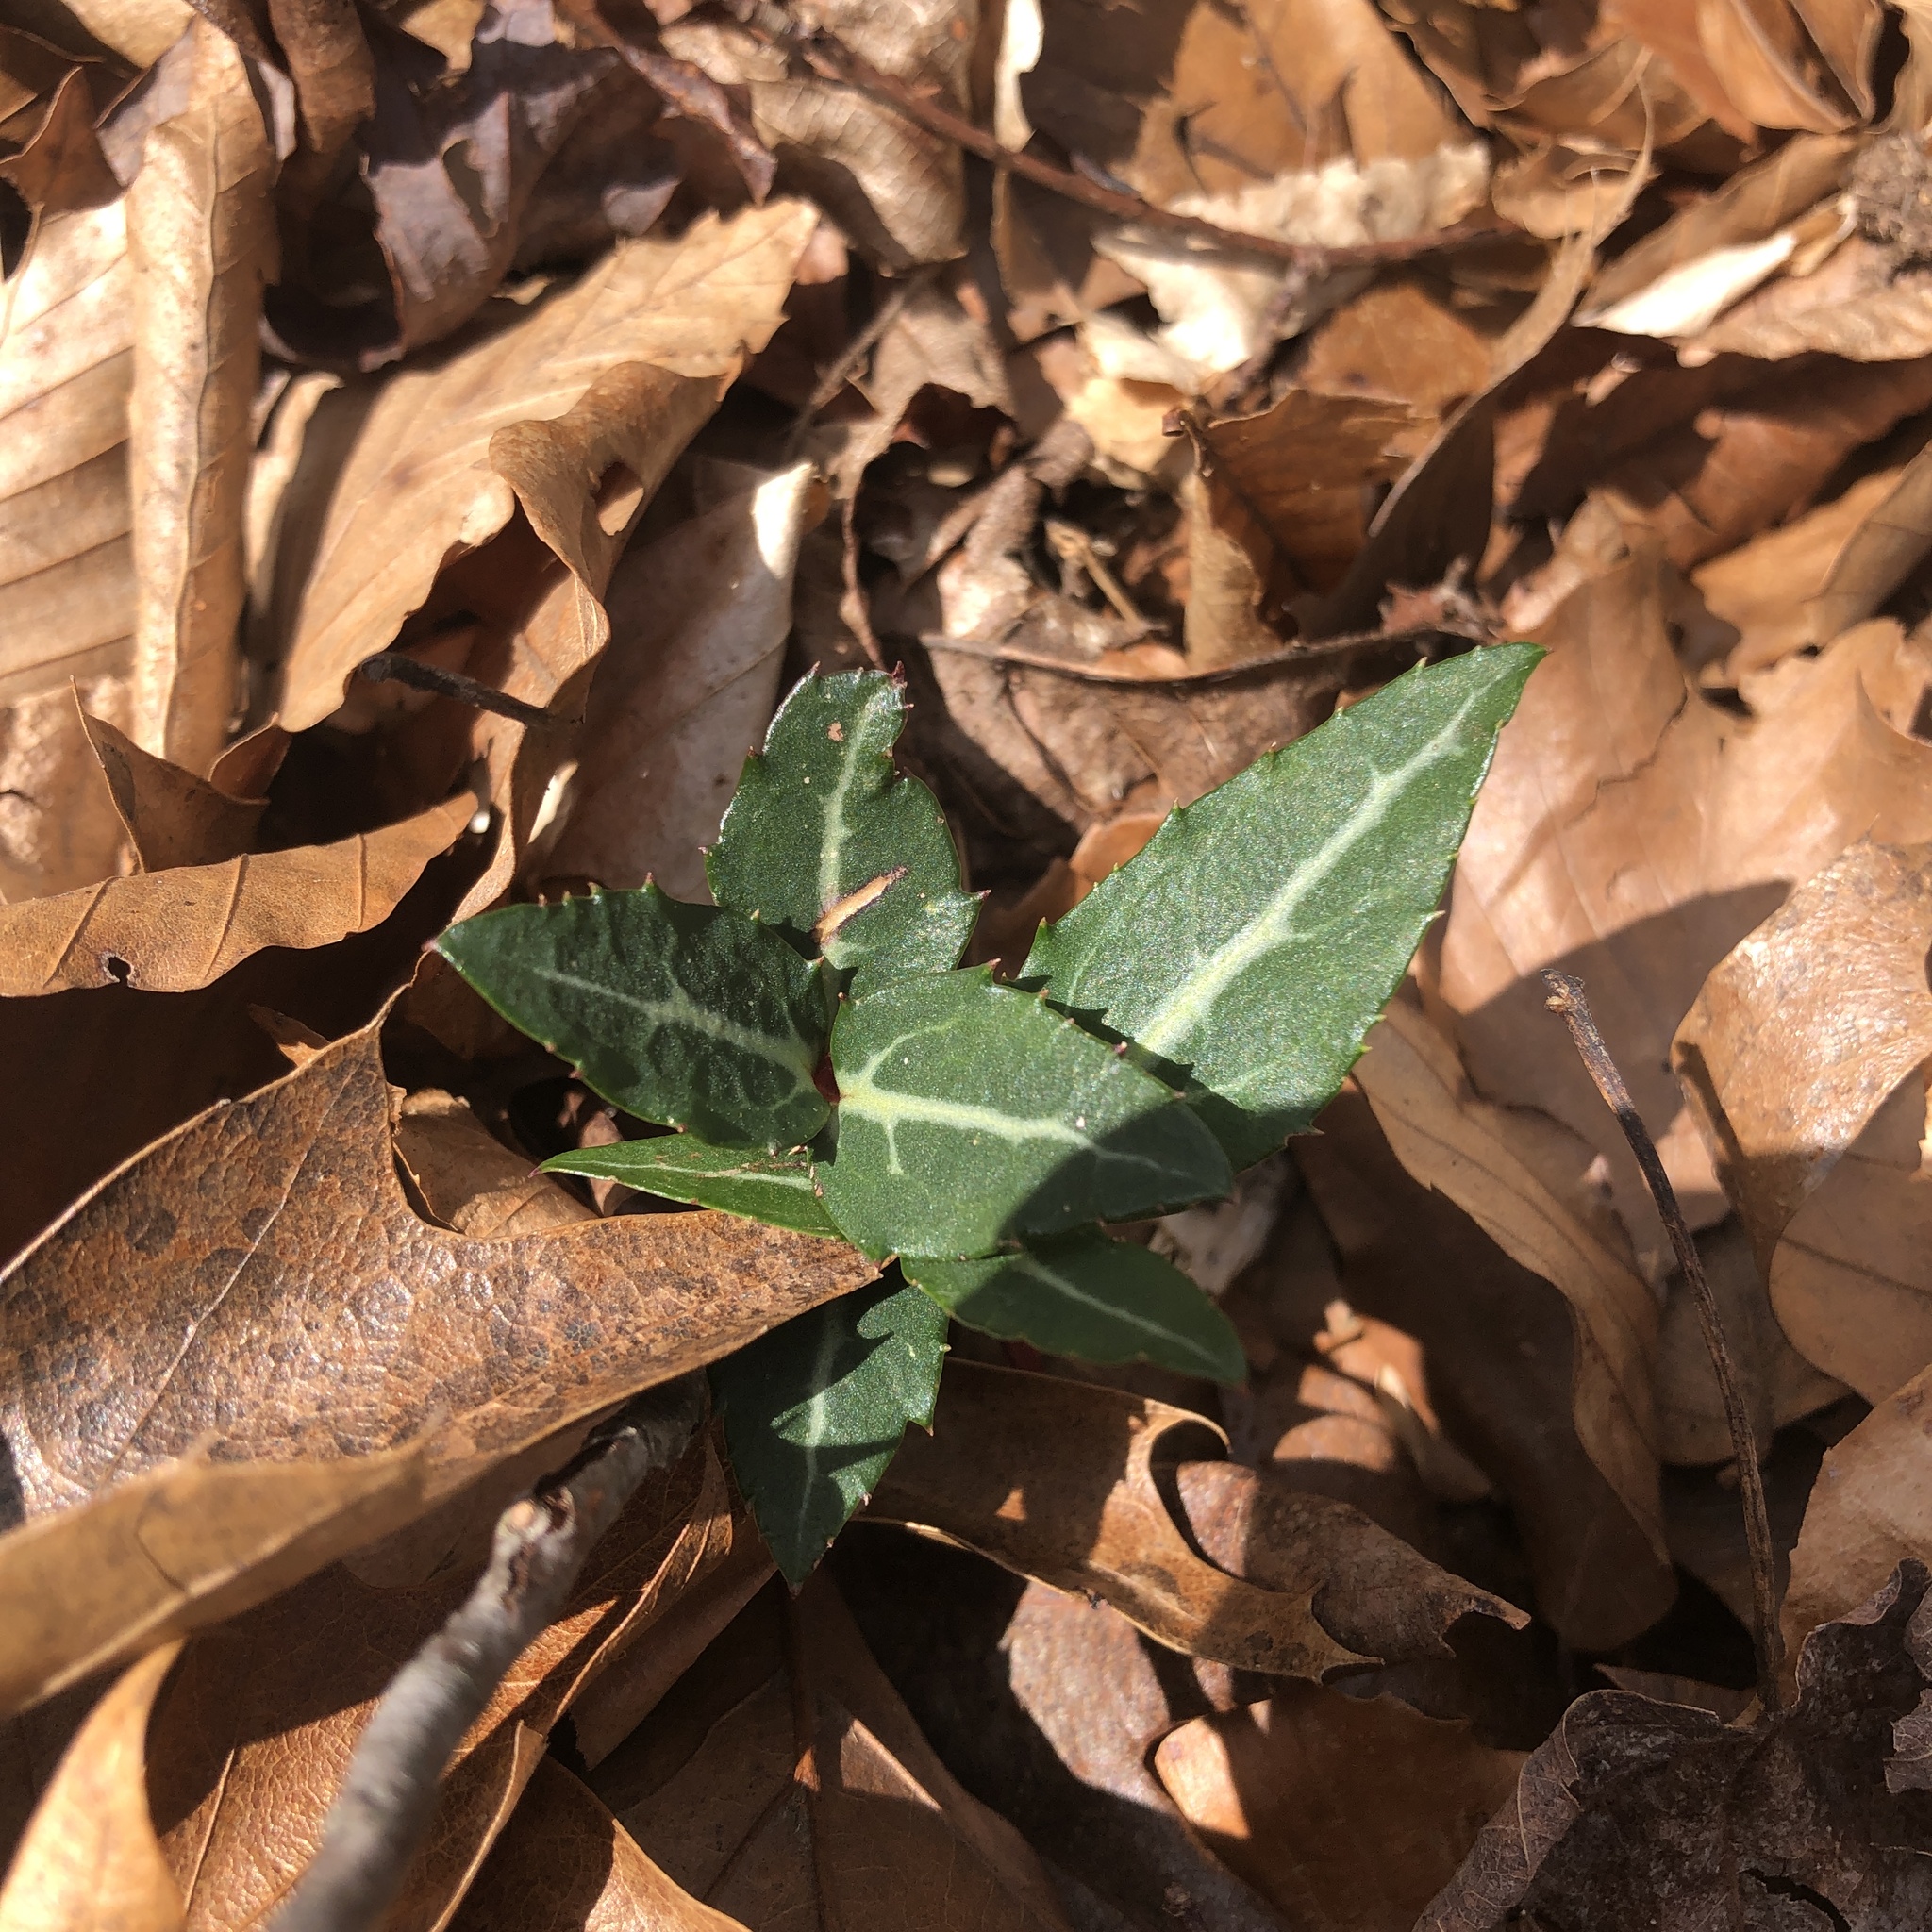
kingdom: Plantae
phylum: Tracheophyta
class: Magnoliopsida
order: Ericales
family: Ericaceae
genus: Chimaphila
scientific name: Chimaphila maculata
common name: Spotted pipsissewa
